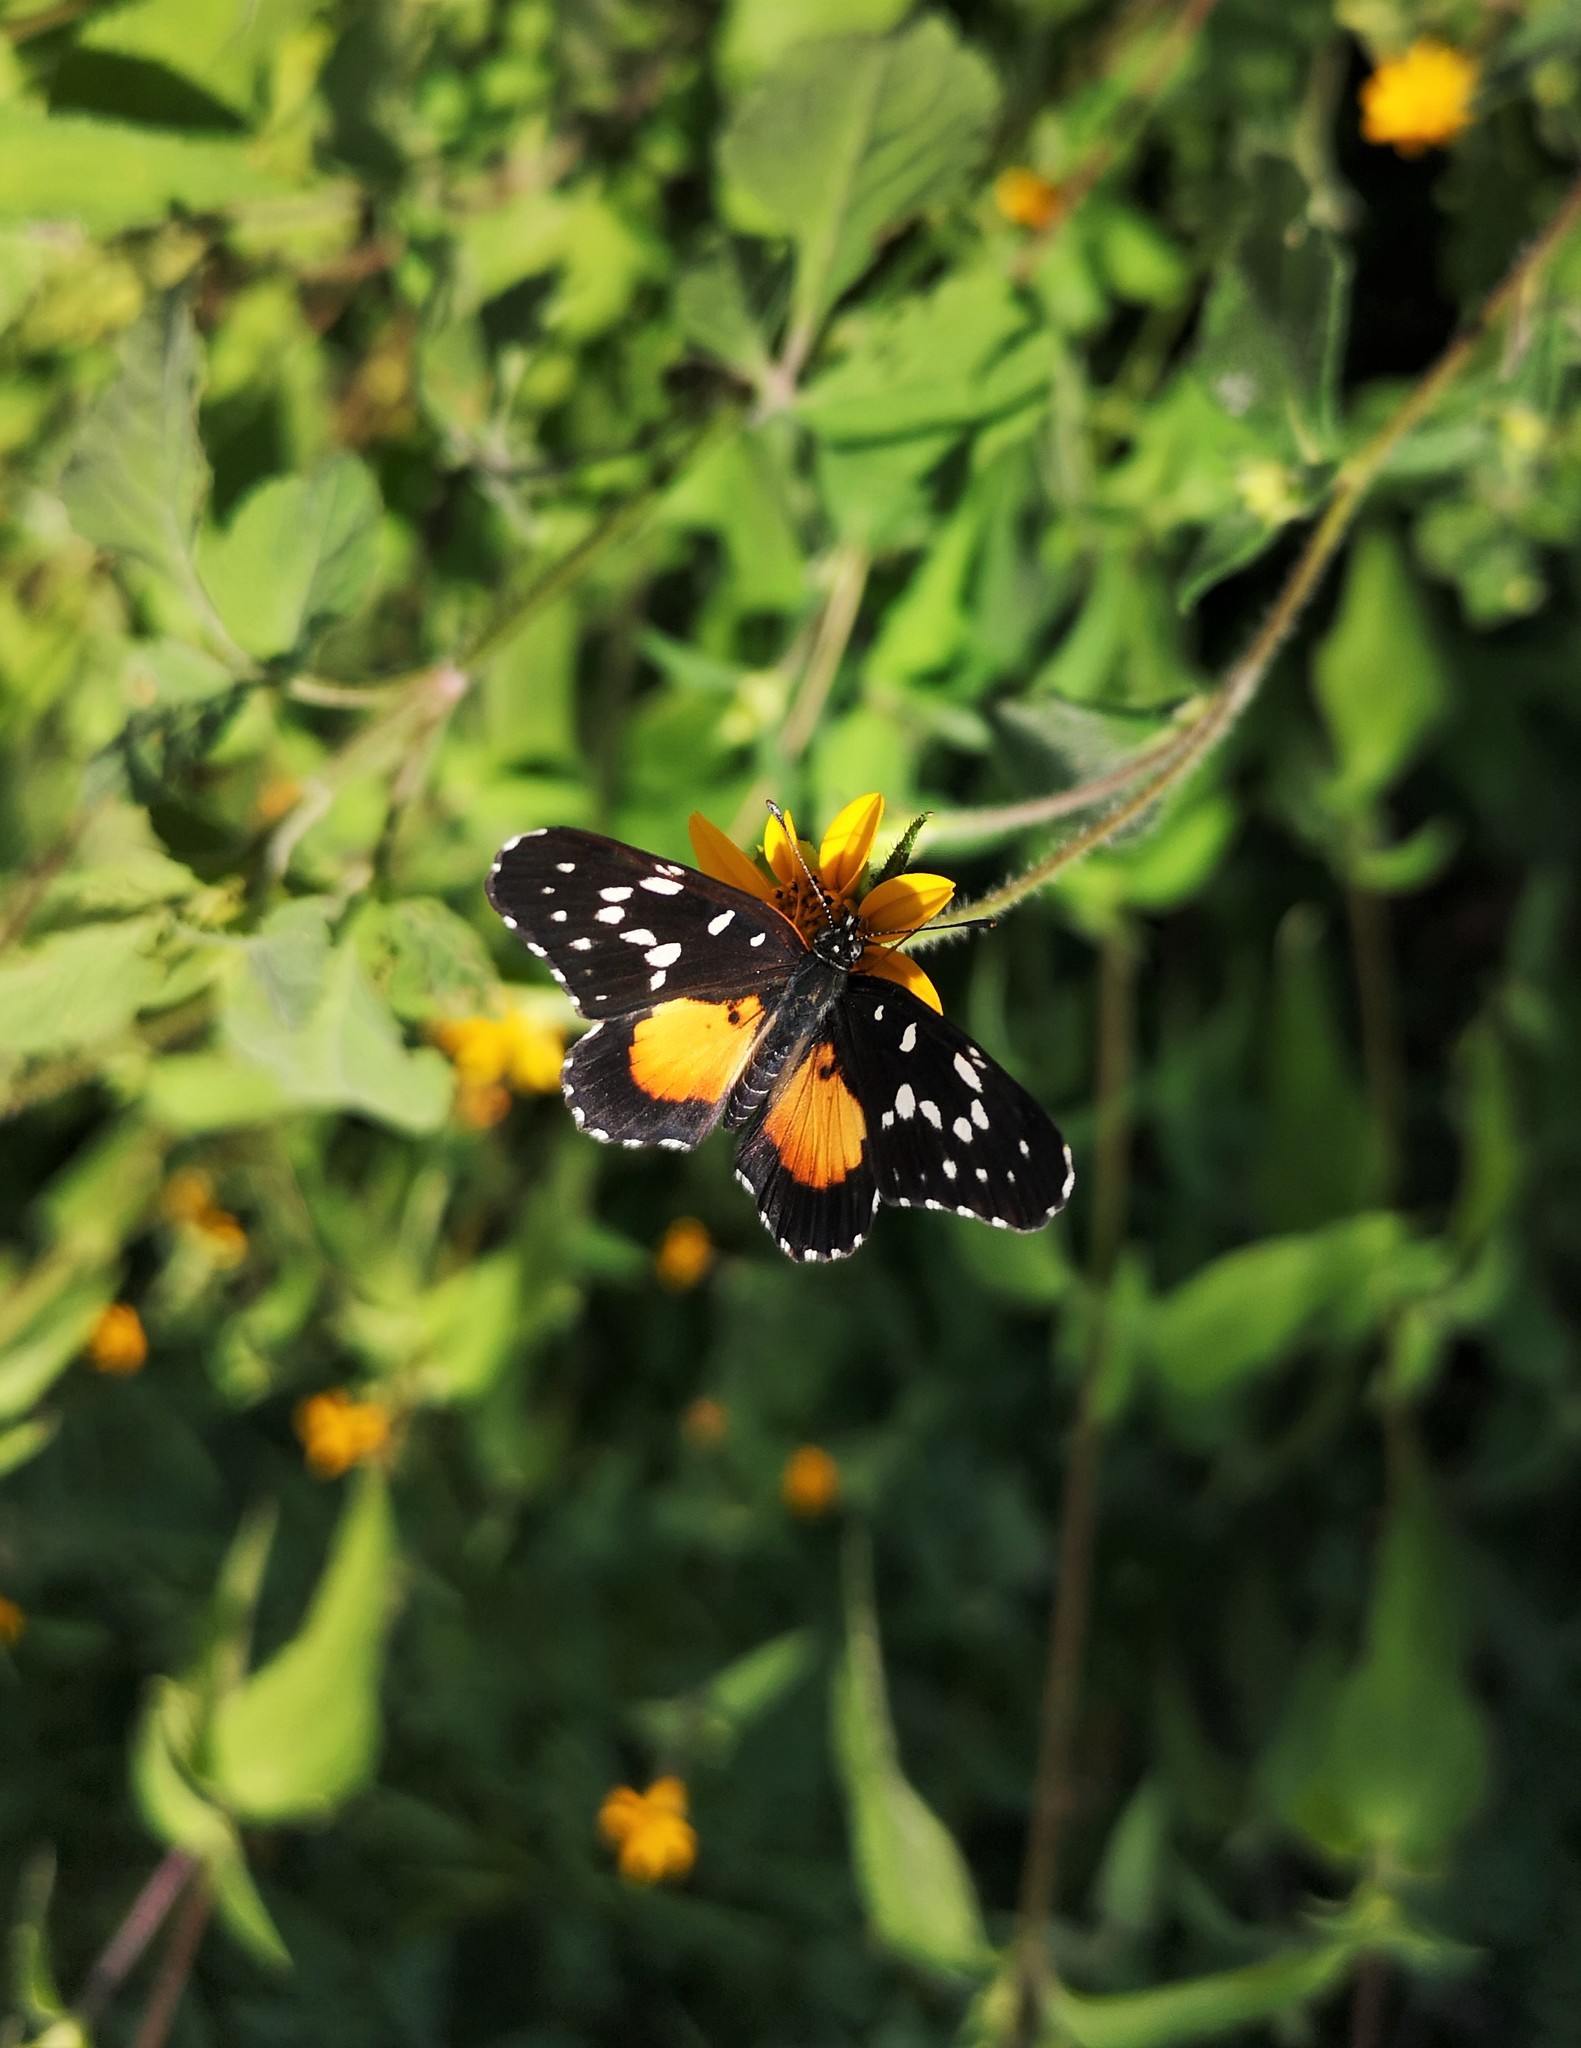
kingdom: Animalia
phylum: Arthropoda
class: Insecta
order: Lepidoptera
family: Nymphalidae
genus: Chlosyne
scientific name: Chlosyne rosita
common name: Rosita patch
